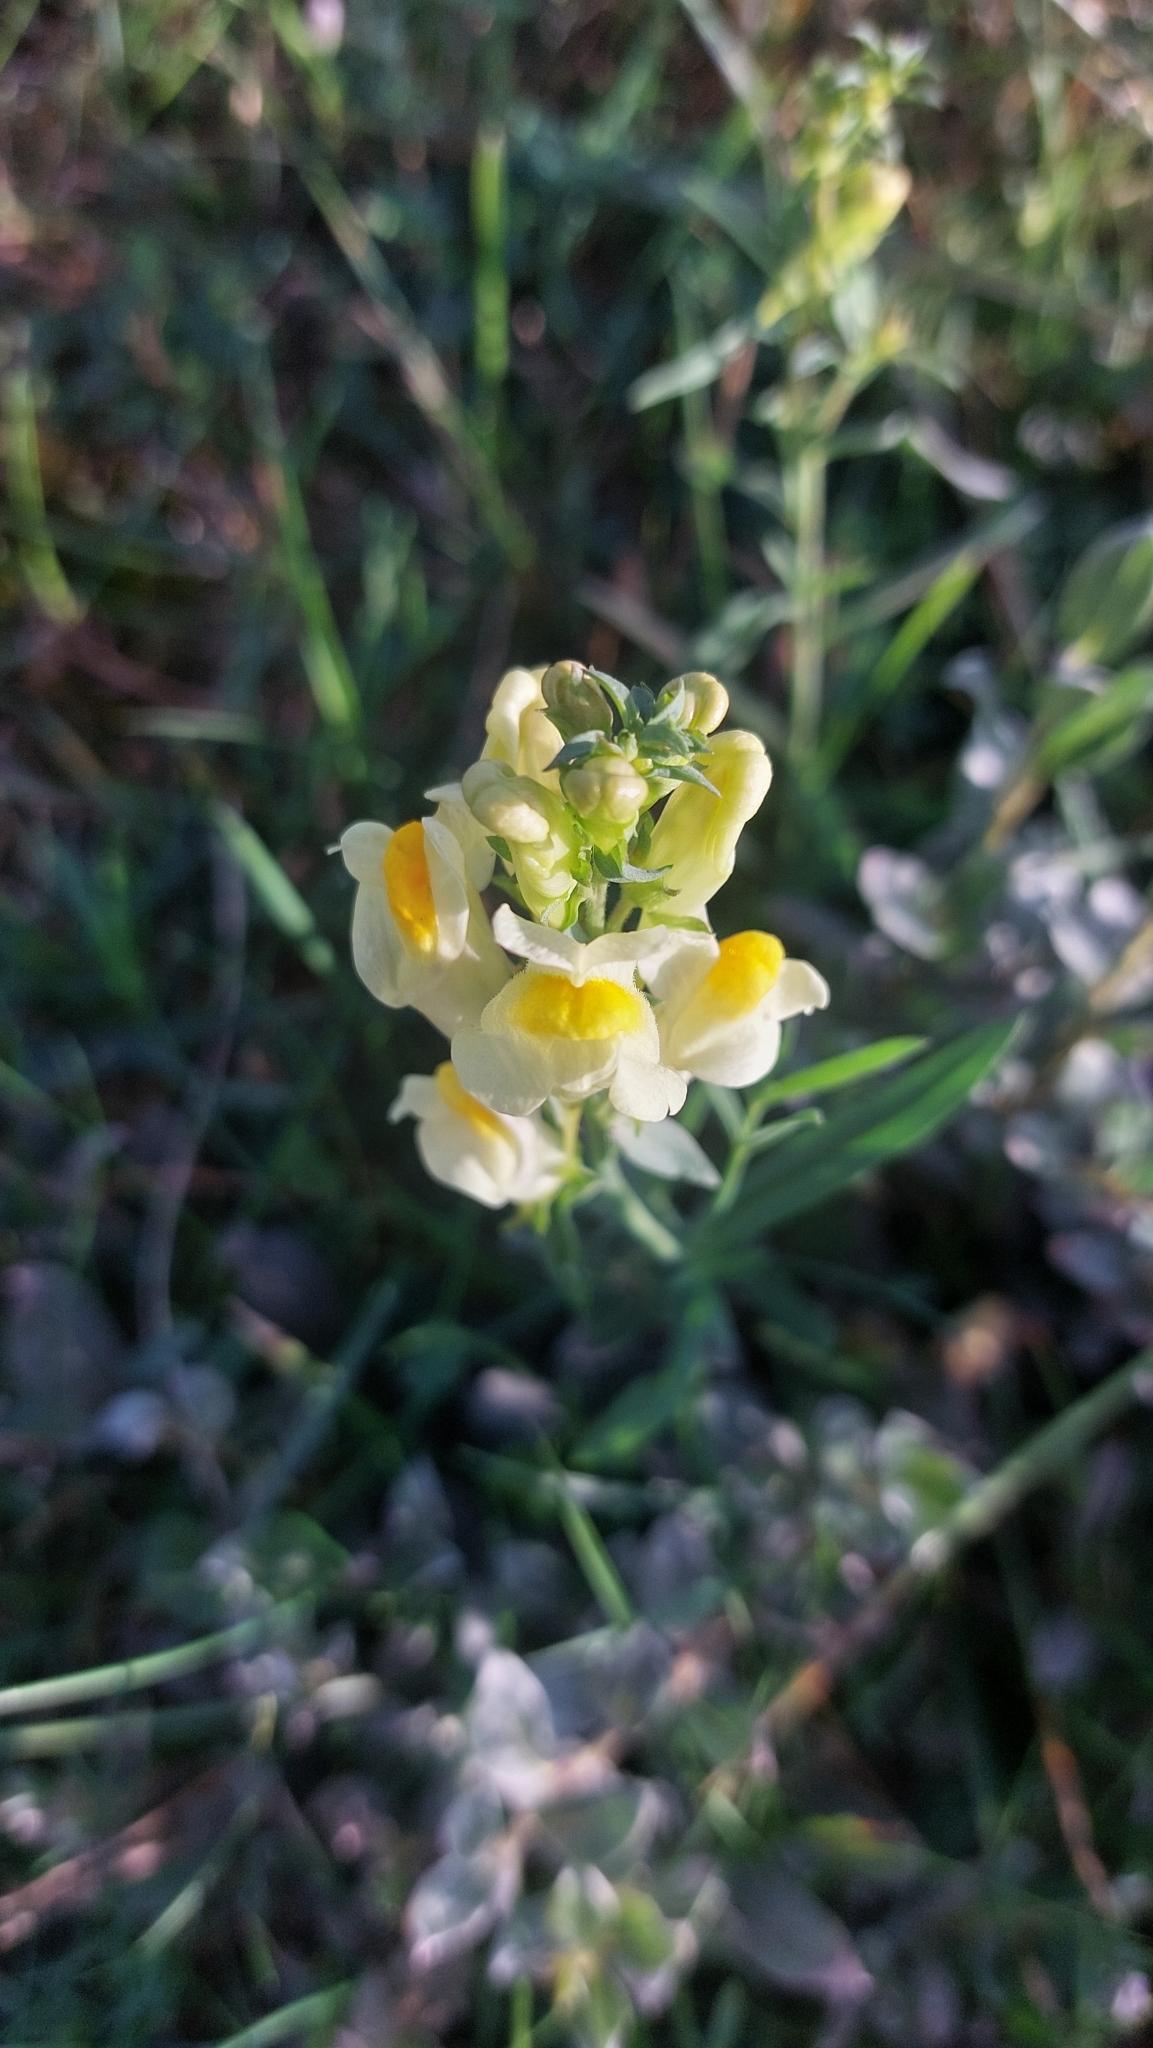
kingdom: Plantae
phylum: Tracheophyta
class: Magnoliopsida
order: Lamiales
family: Plantaginaceae
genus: Linaria
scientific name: Linaria vulgaris
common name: Butter and eggs
